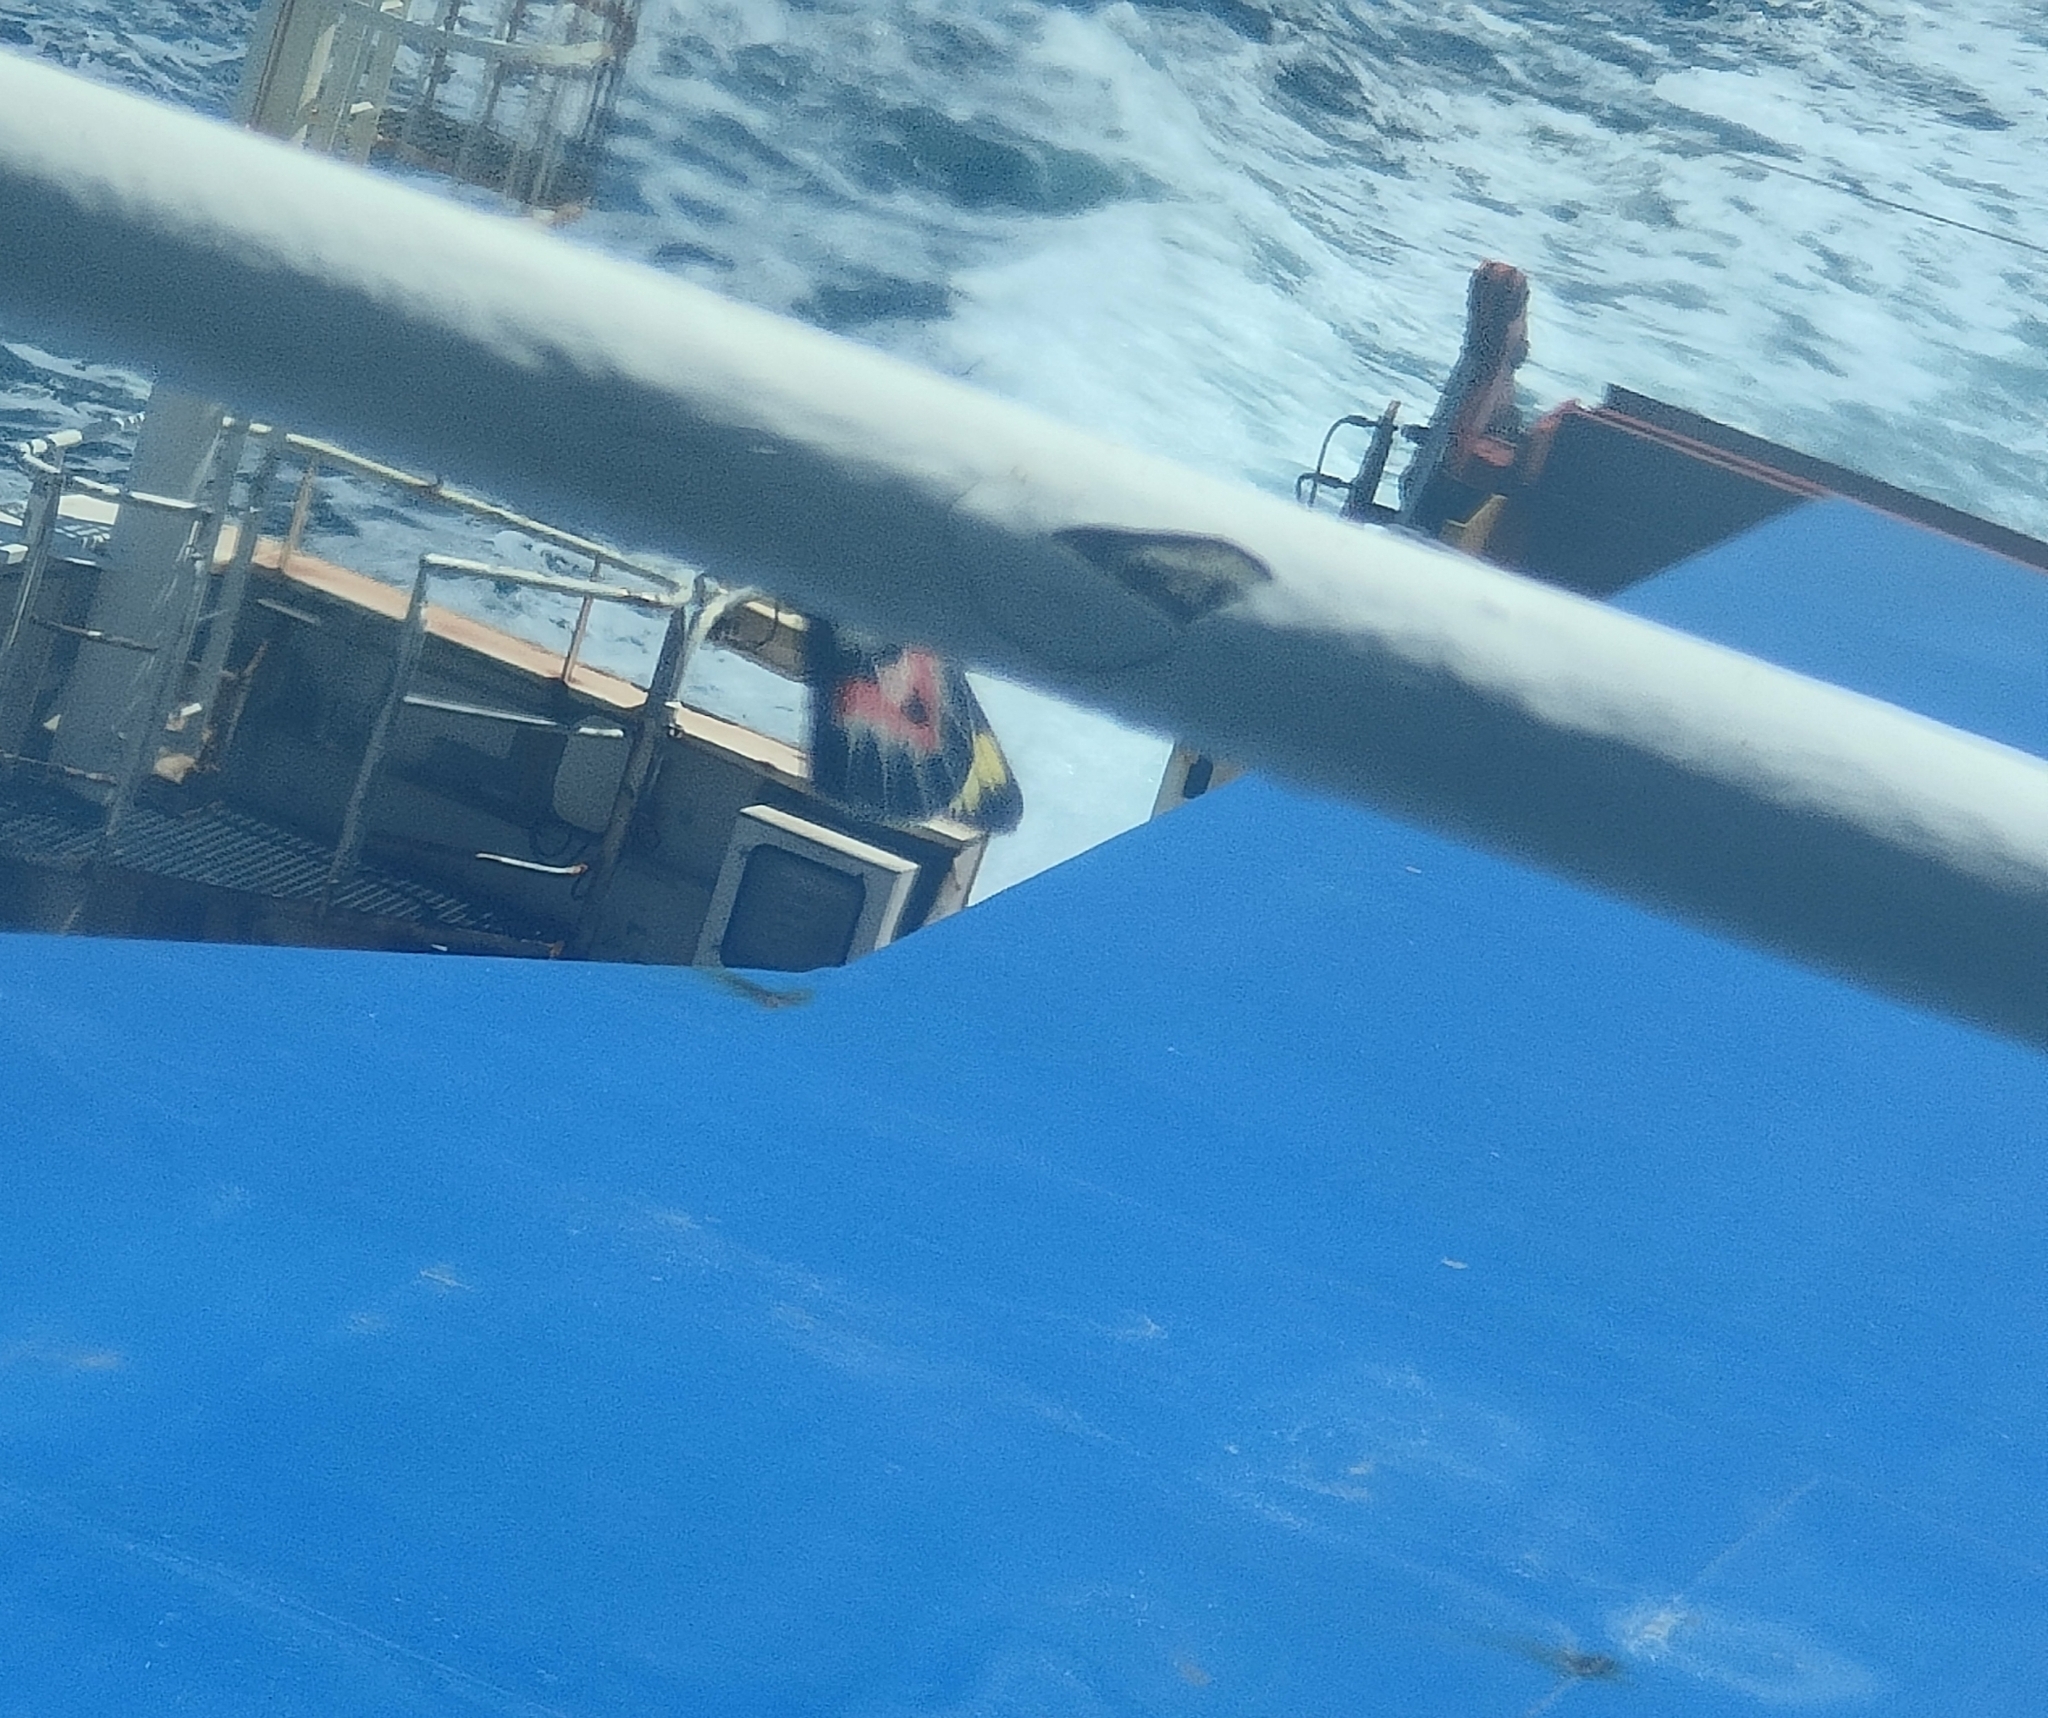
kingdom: Animalia
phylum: Arthropoda
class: Insecta
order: Lepidoptera
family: Pieridae
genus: Delias
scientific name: Delias harpalyce
